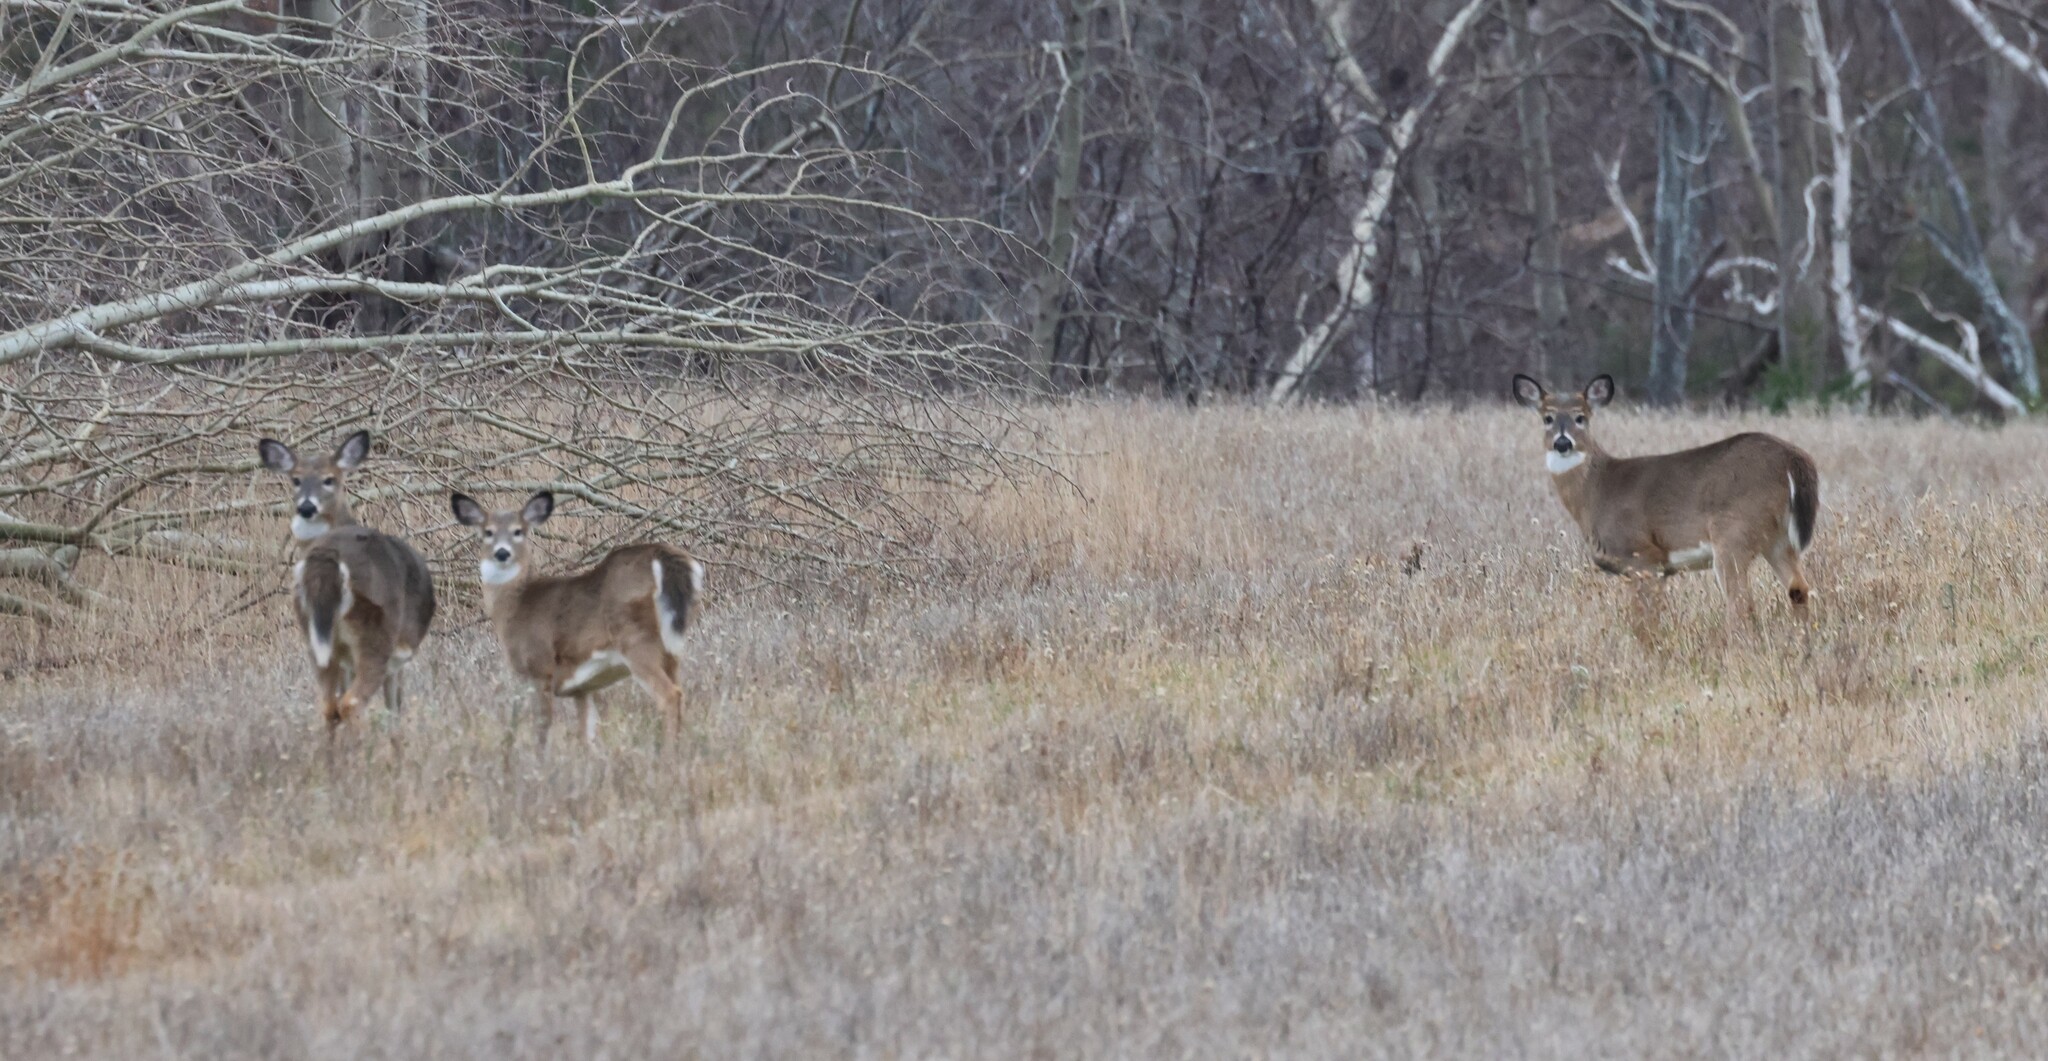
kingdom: Animalia
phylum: Chordata
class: Mammalia
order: Artiodactyla
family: Cervidae
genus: Odocoileus
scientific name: Odocoileus virginianus
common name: White-tailed deer
